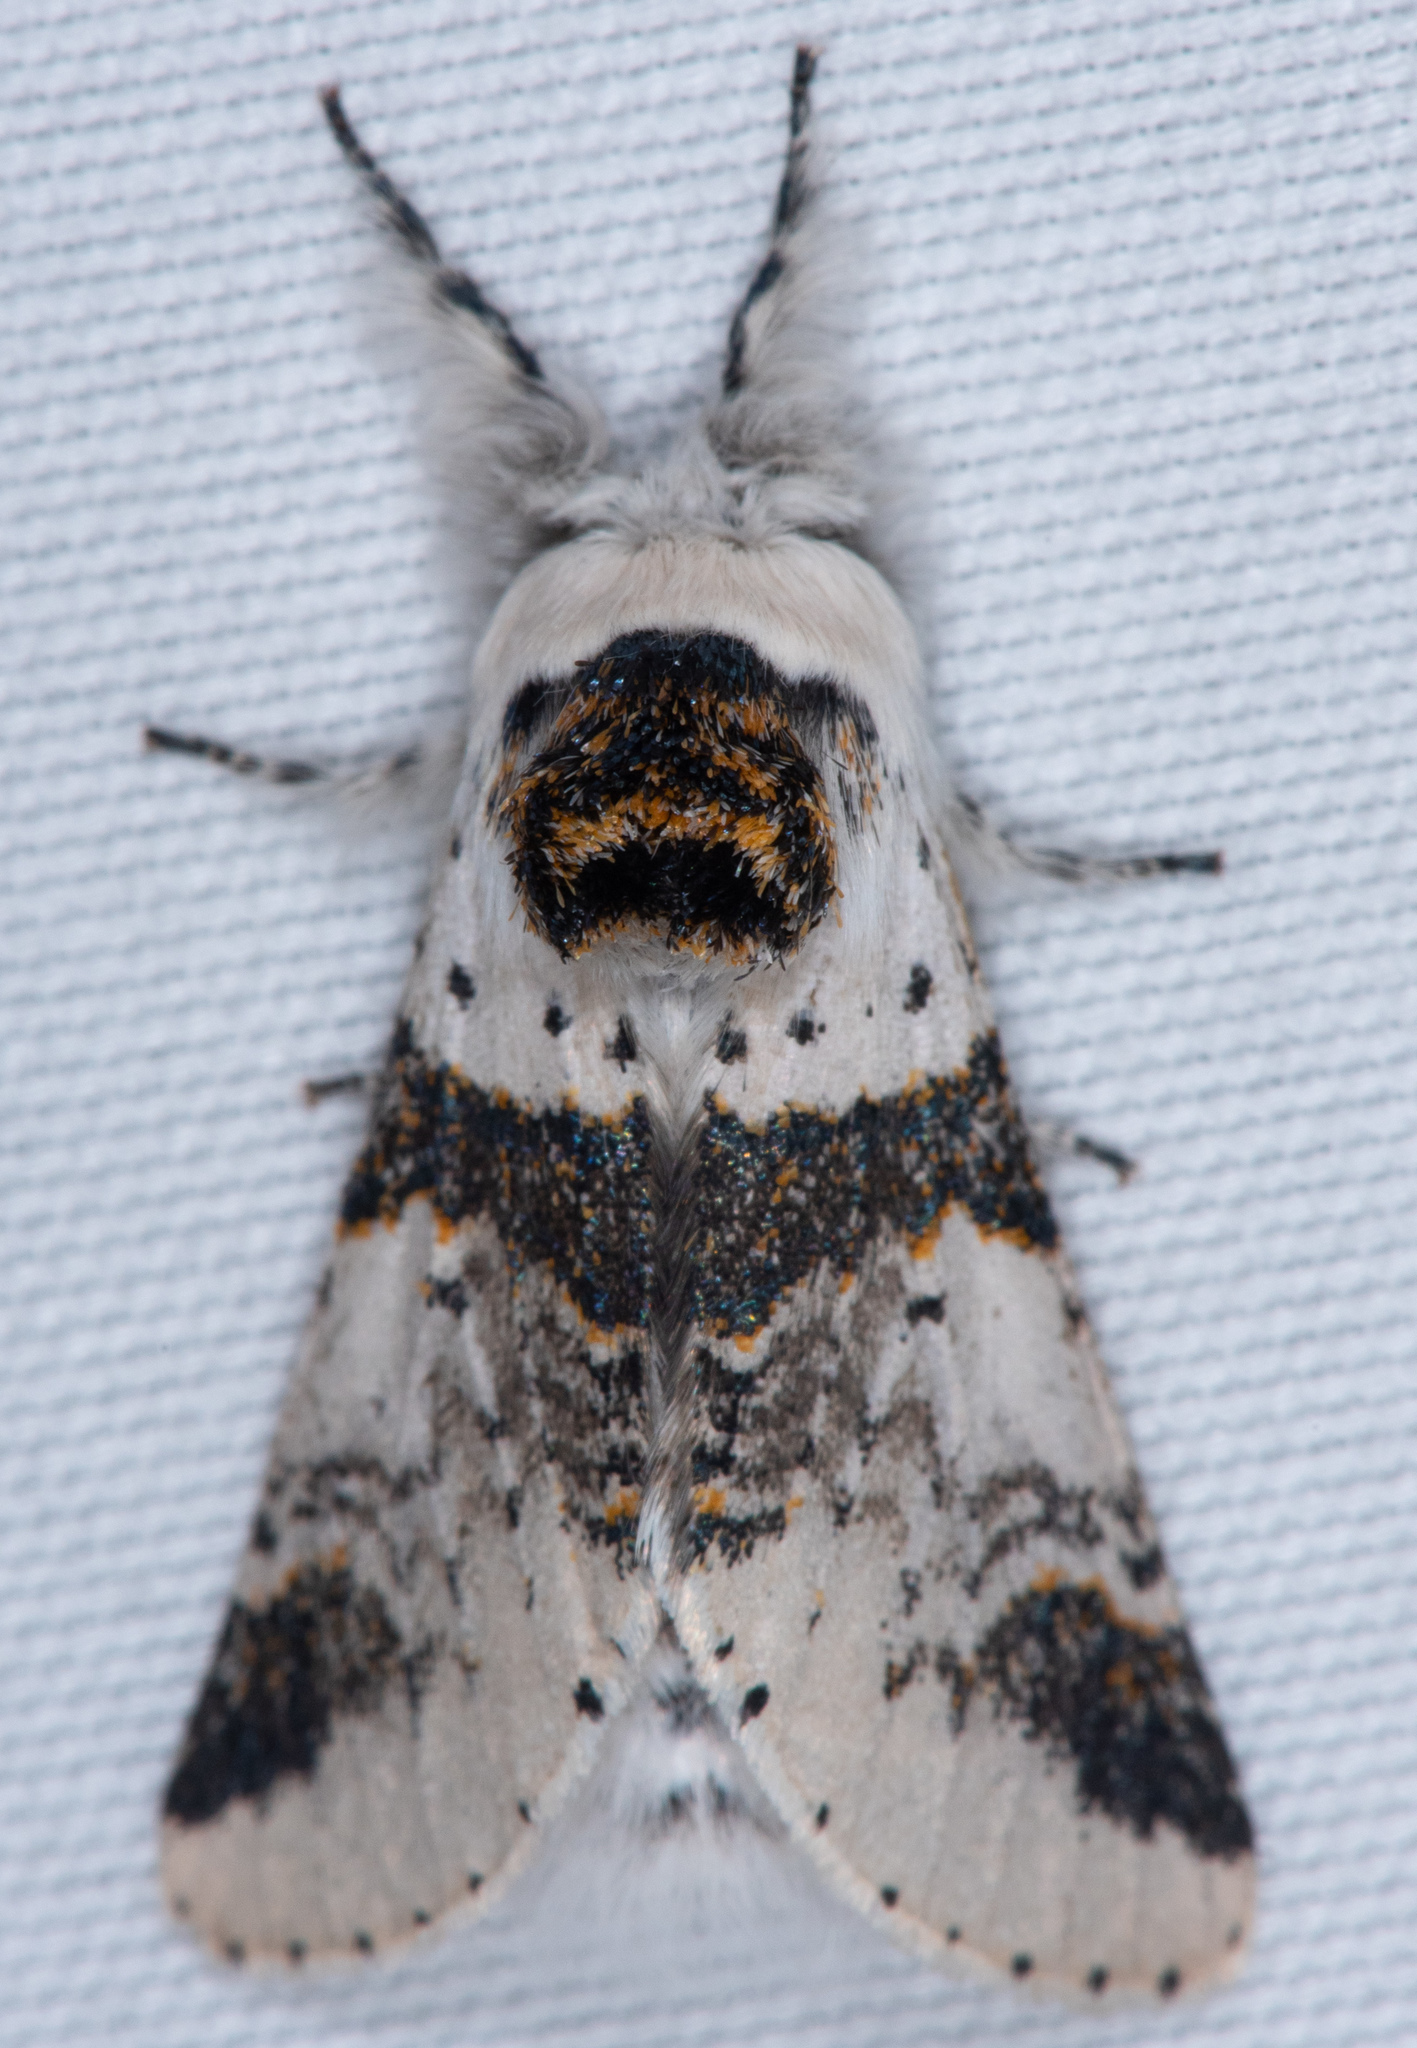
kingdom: Animalia
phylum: Arthropoda
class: Insecta
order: Lepidoptera
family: Notodontidae
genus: Furcula
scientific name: Furcula scolopendrina
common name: Zigzag furcula moth
